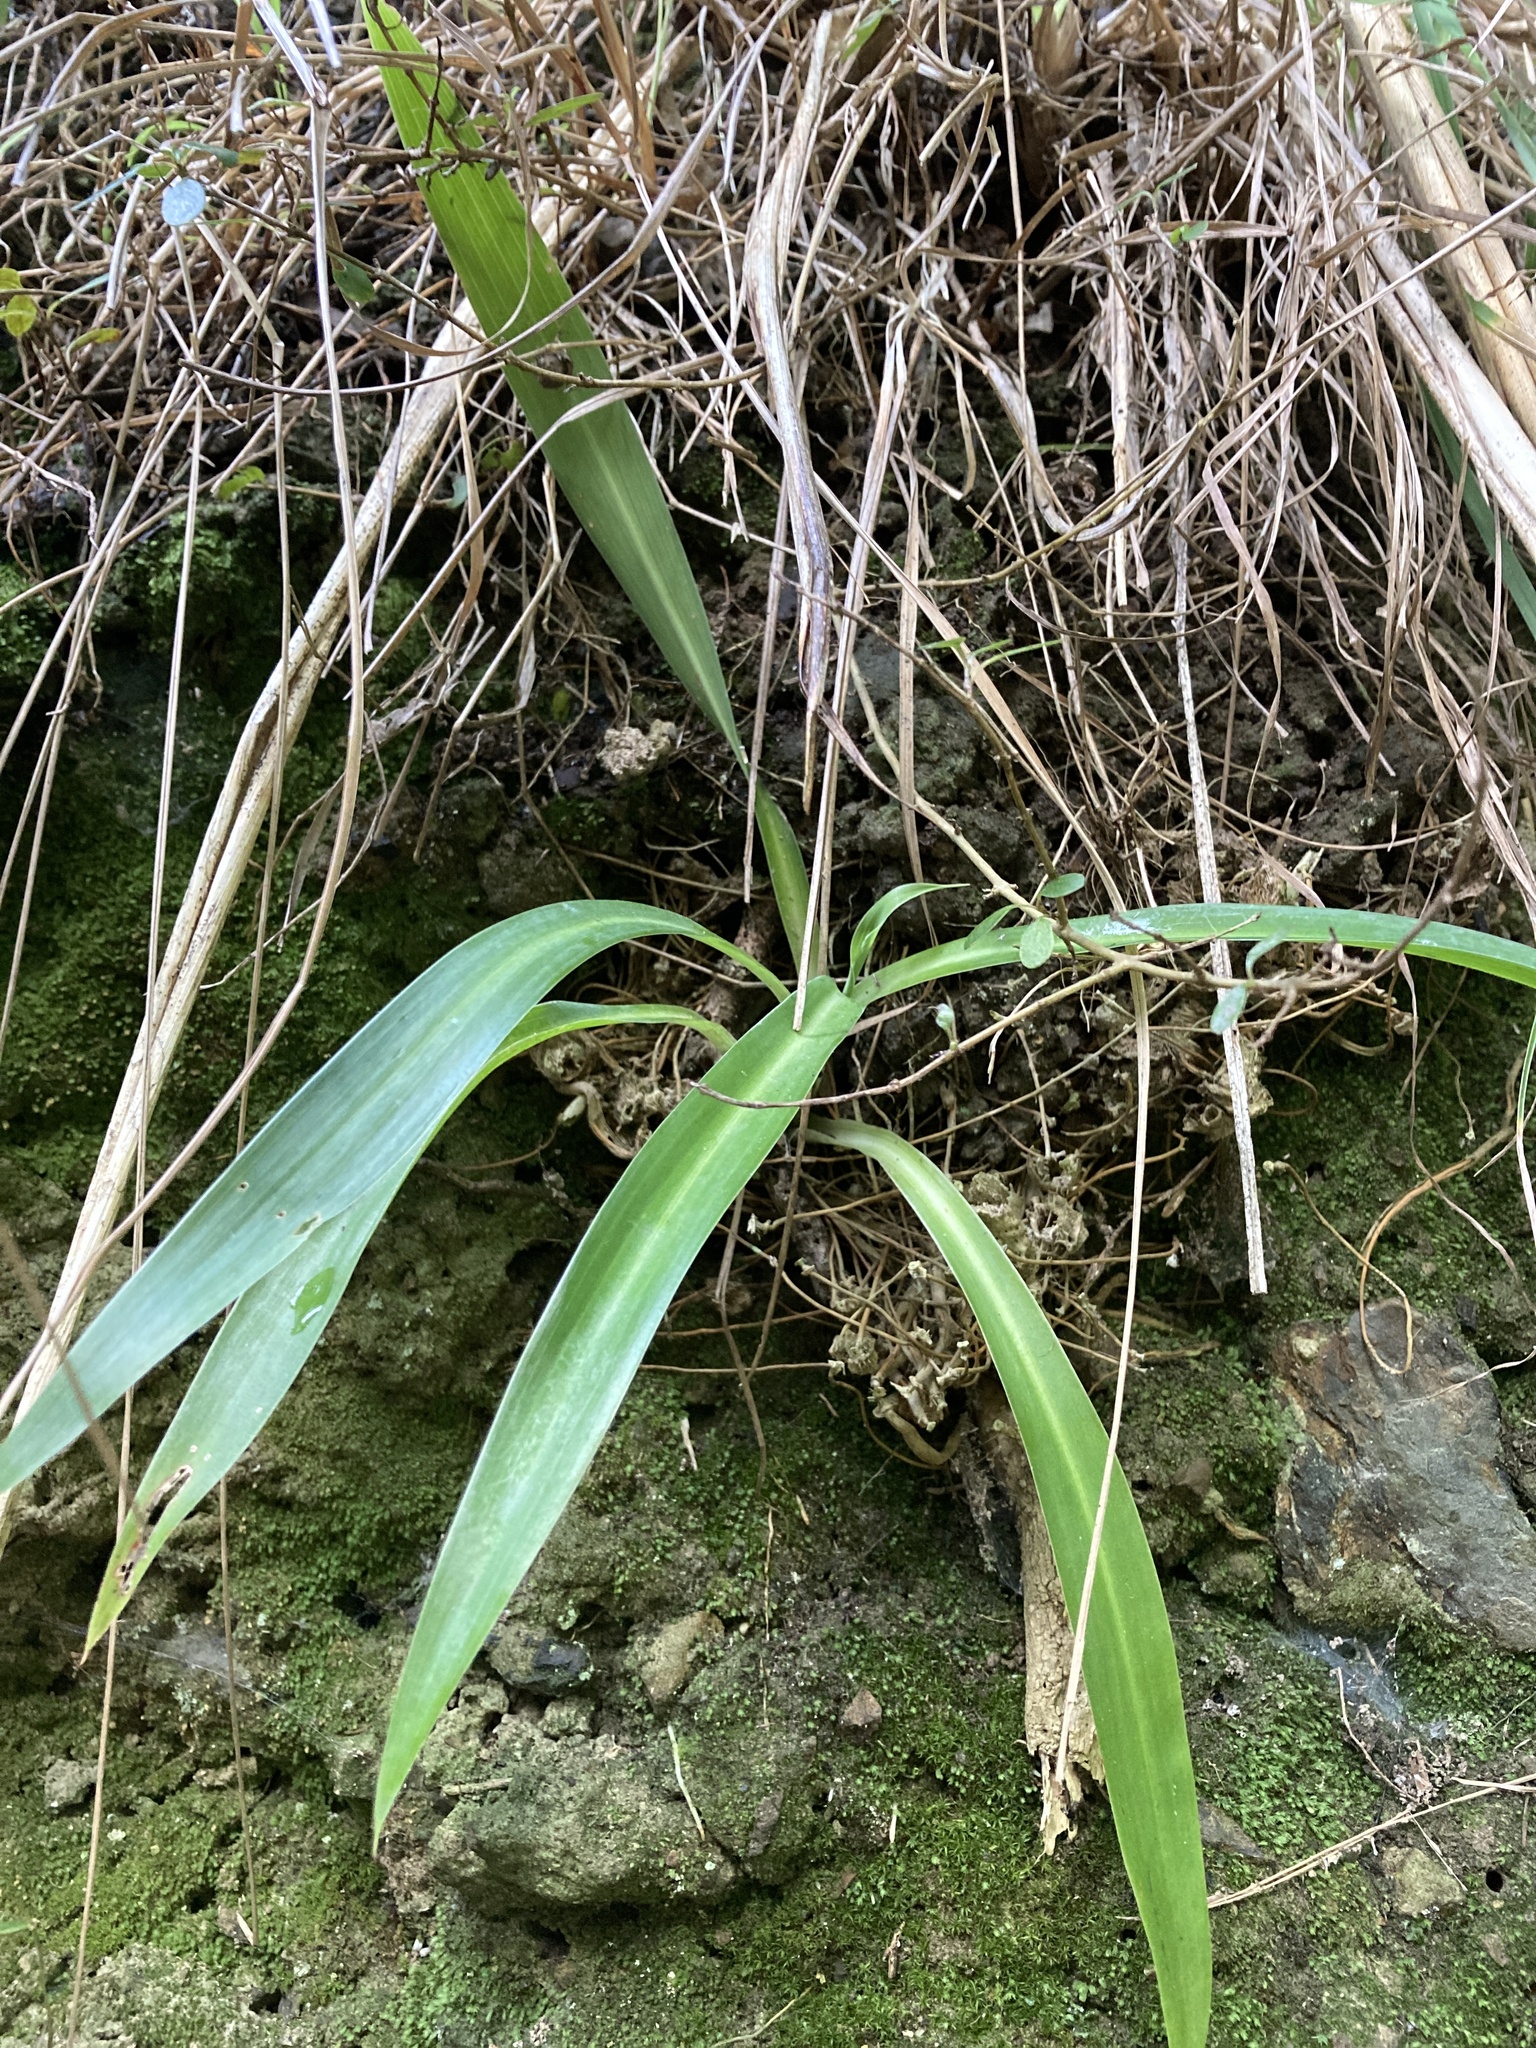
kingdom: Plantae
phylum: Tracheophyta
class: Liliopsida
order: Asparagales
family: Asparagaceae
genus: Arthropodium
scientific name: Arthropodium cirratum
